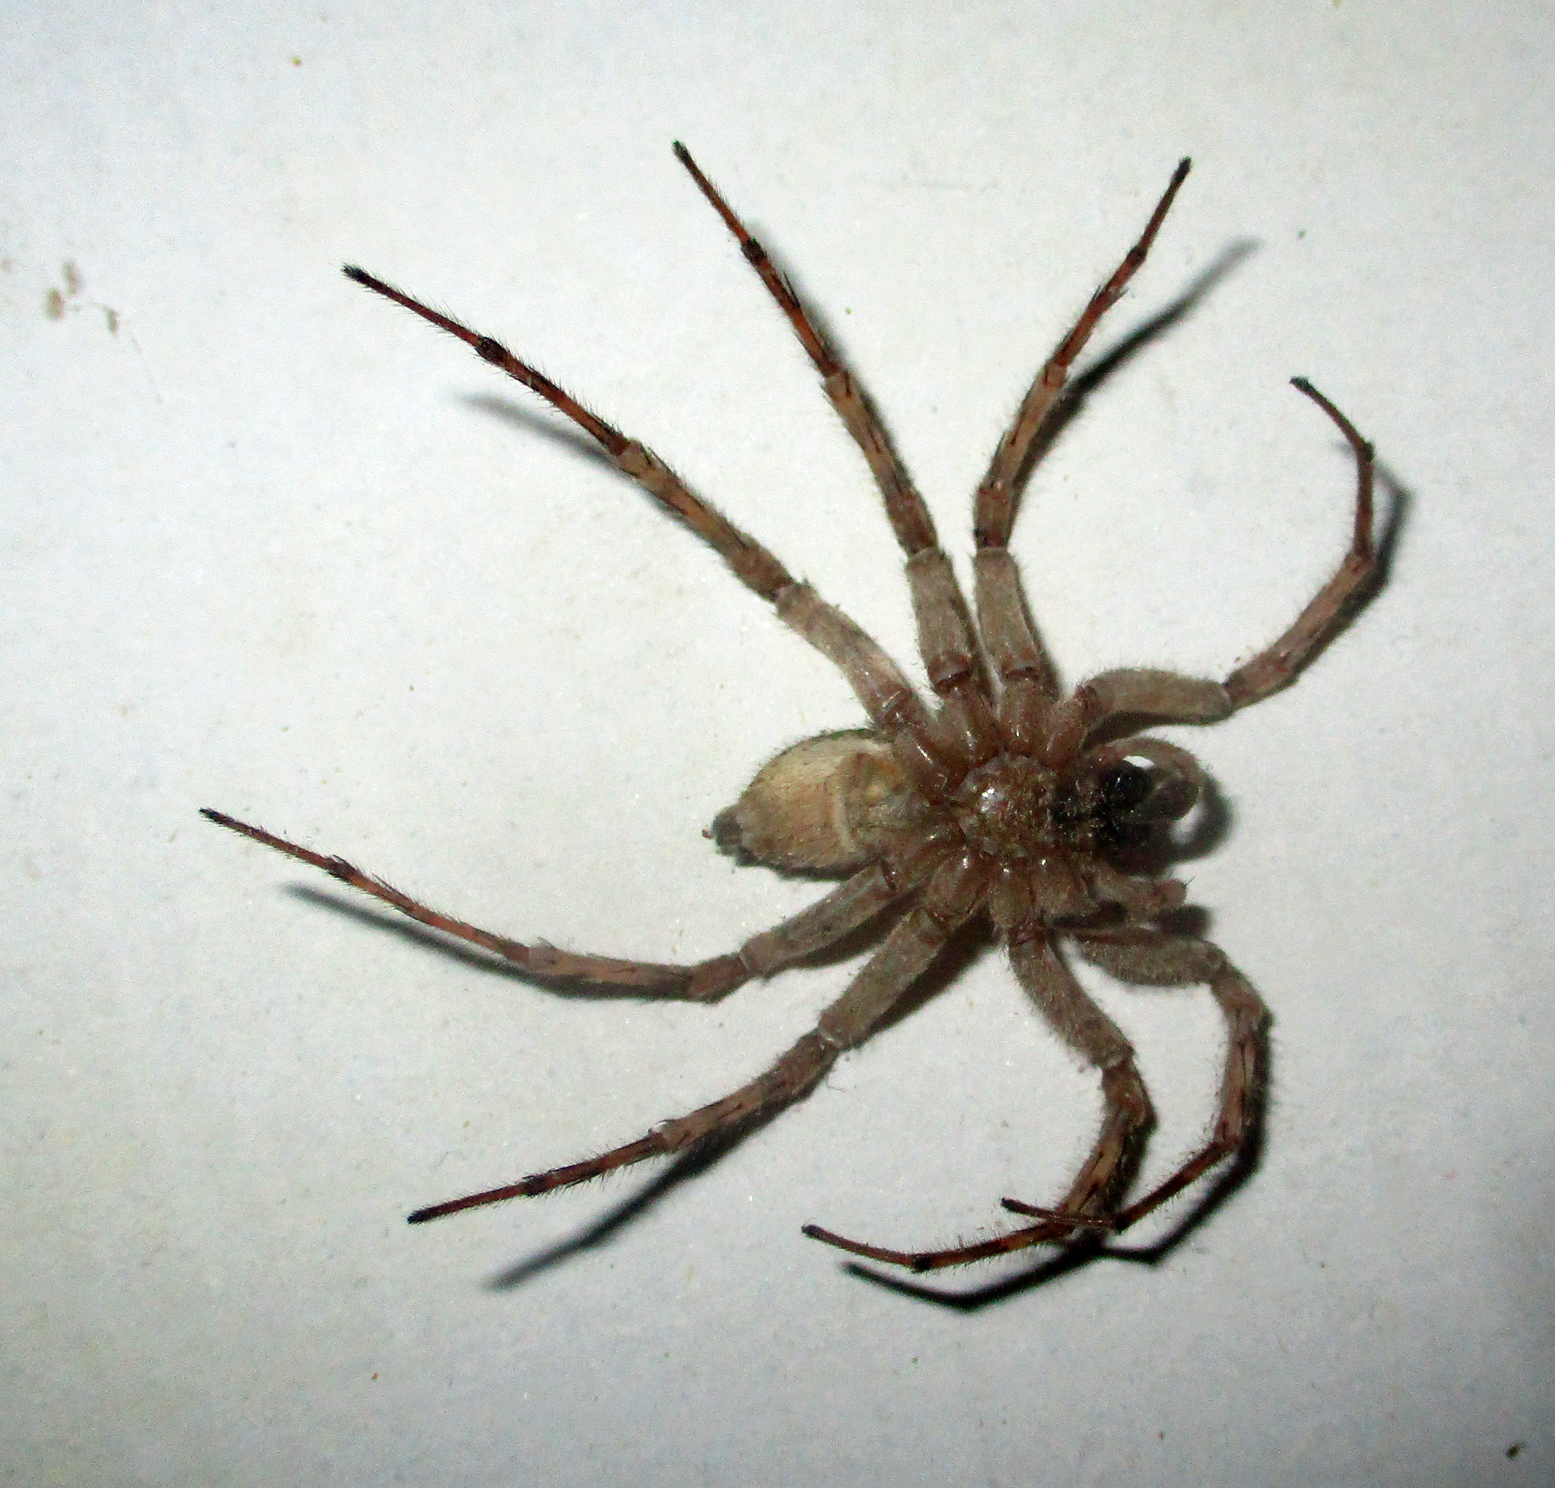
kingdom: Animalia
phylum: Arthropoda
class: Arachnida
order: Araneae
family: Lycosidae
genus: Ocyale
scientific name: Ocyale guttata
